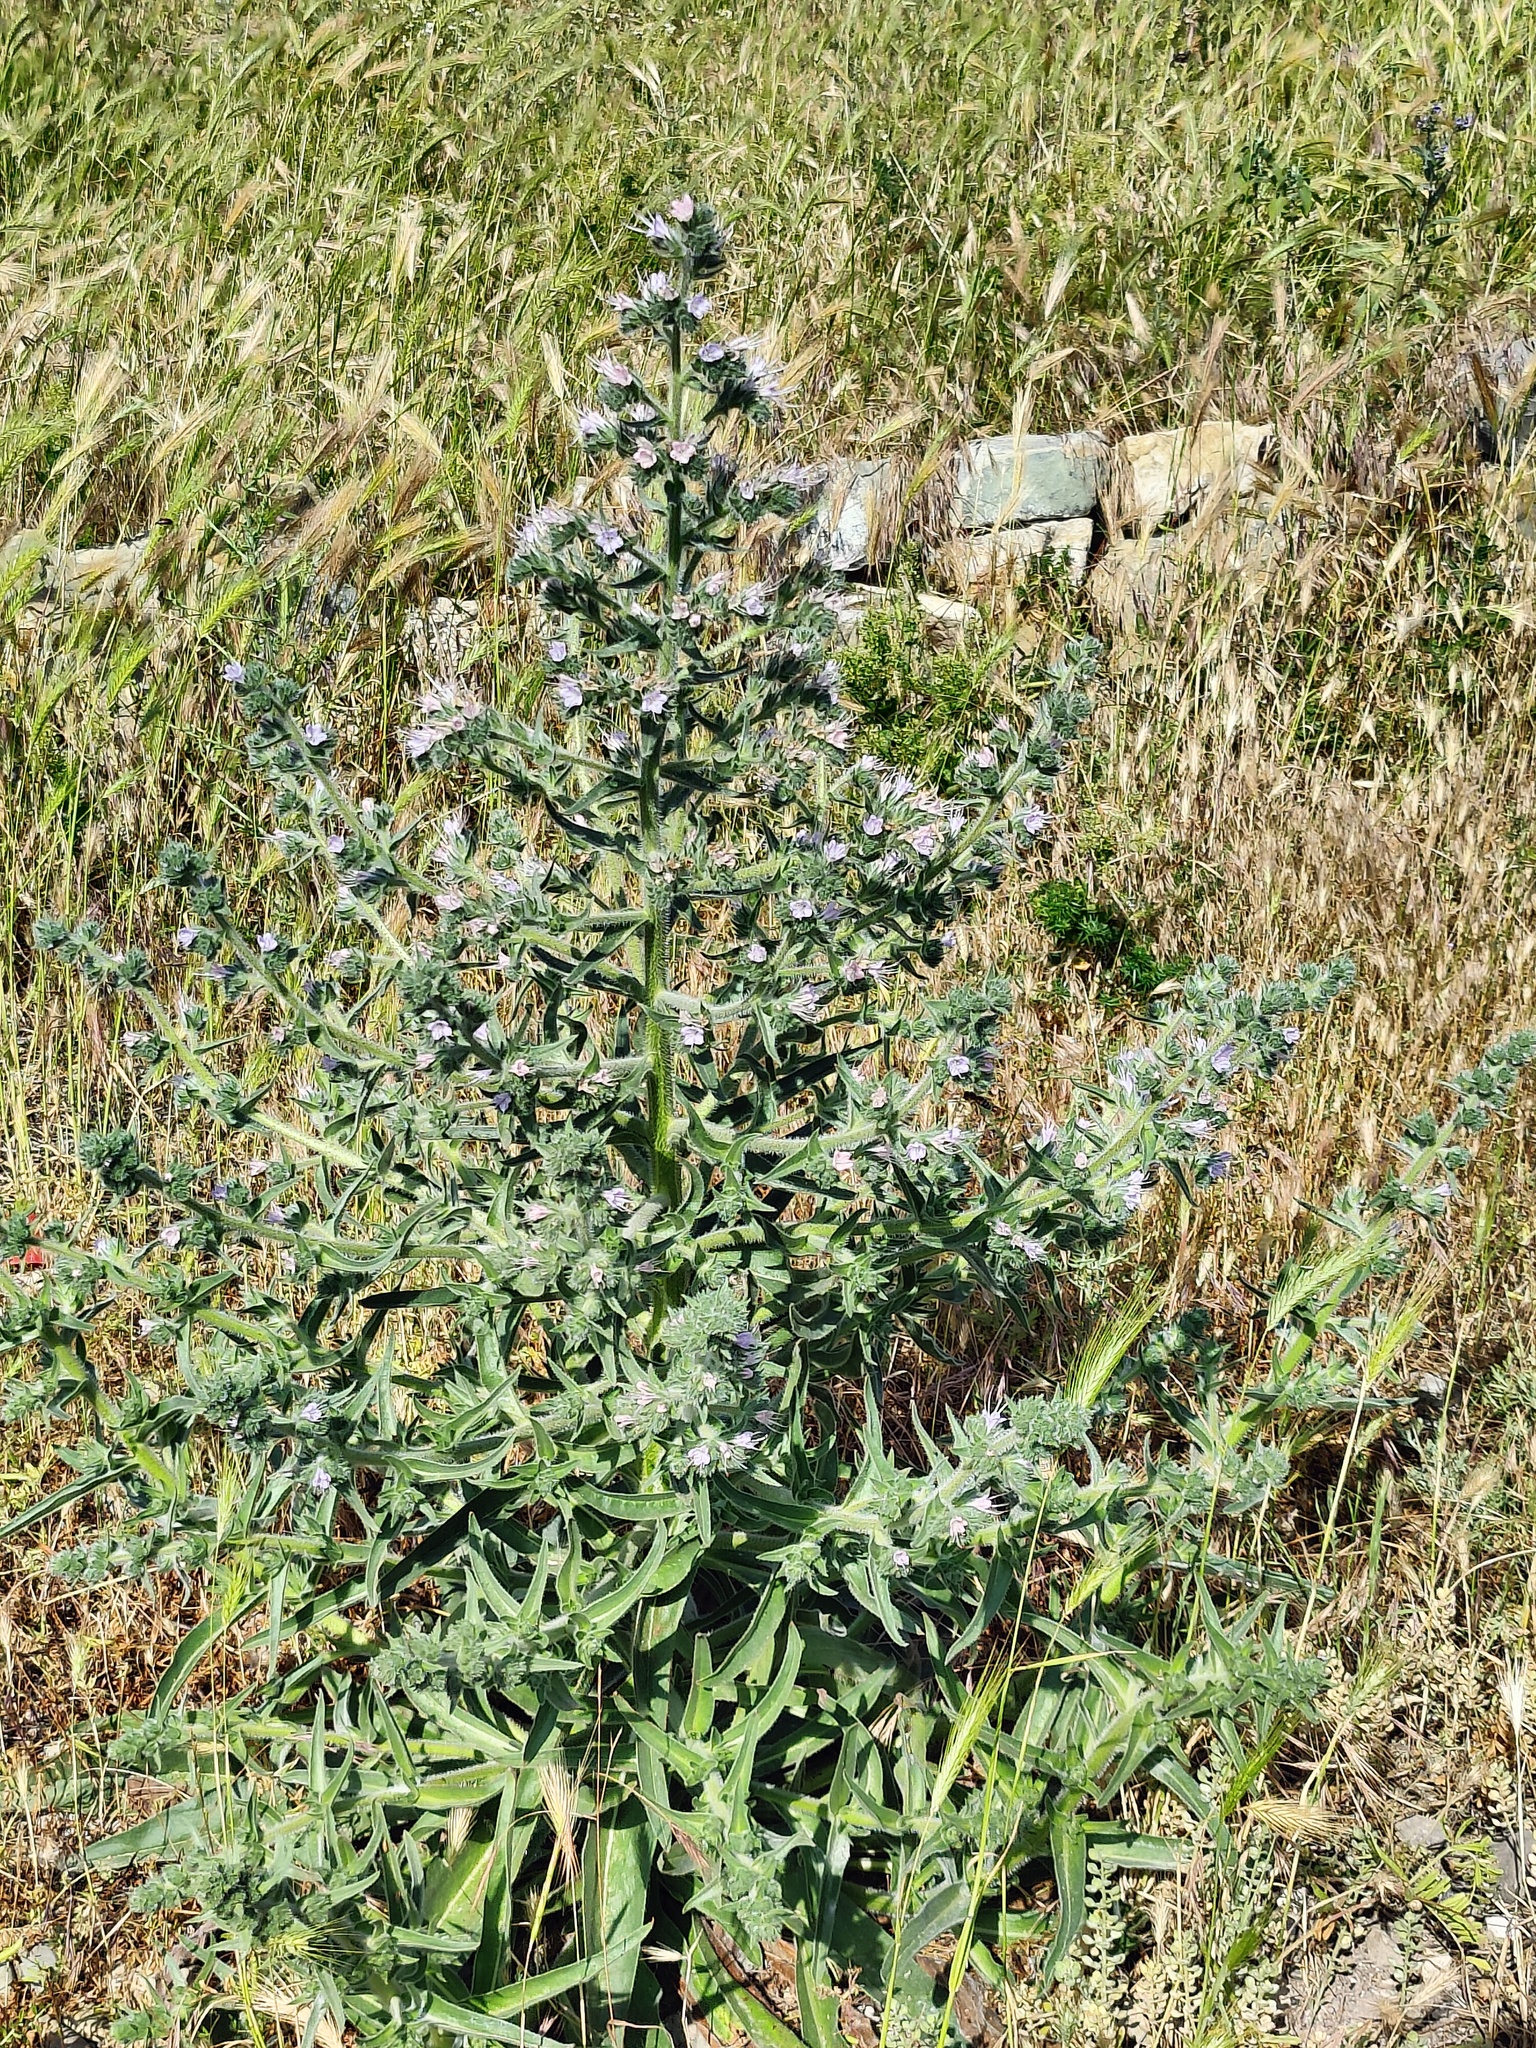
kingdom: Plantae
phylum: Tracheophyta
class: Magnoliopsida
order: Boraginales
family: Boraginaceae
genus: Echium
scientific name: Echium italicum
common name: Italian viper's bugloss
